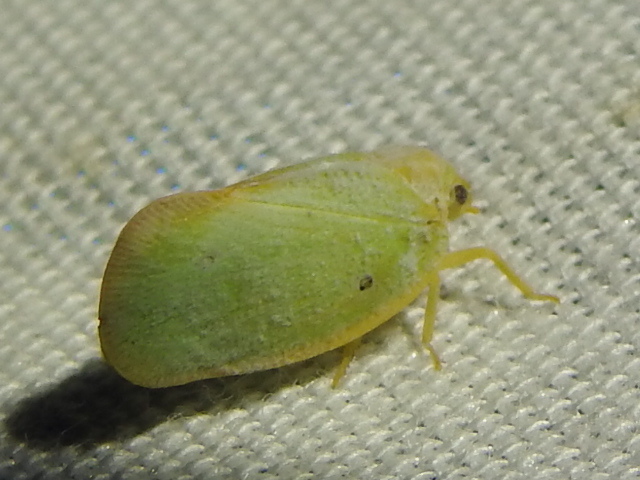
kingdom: Animalia
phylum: Arthropoda
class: Insecta
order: Hemiptera
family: Flatidae
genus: Ormenoides
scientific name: Ormenoides venusta
